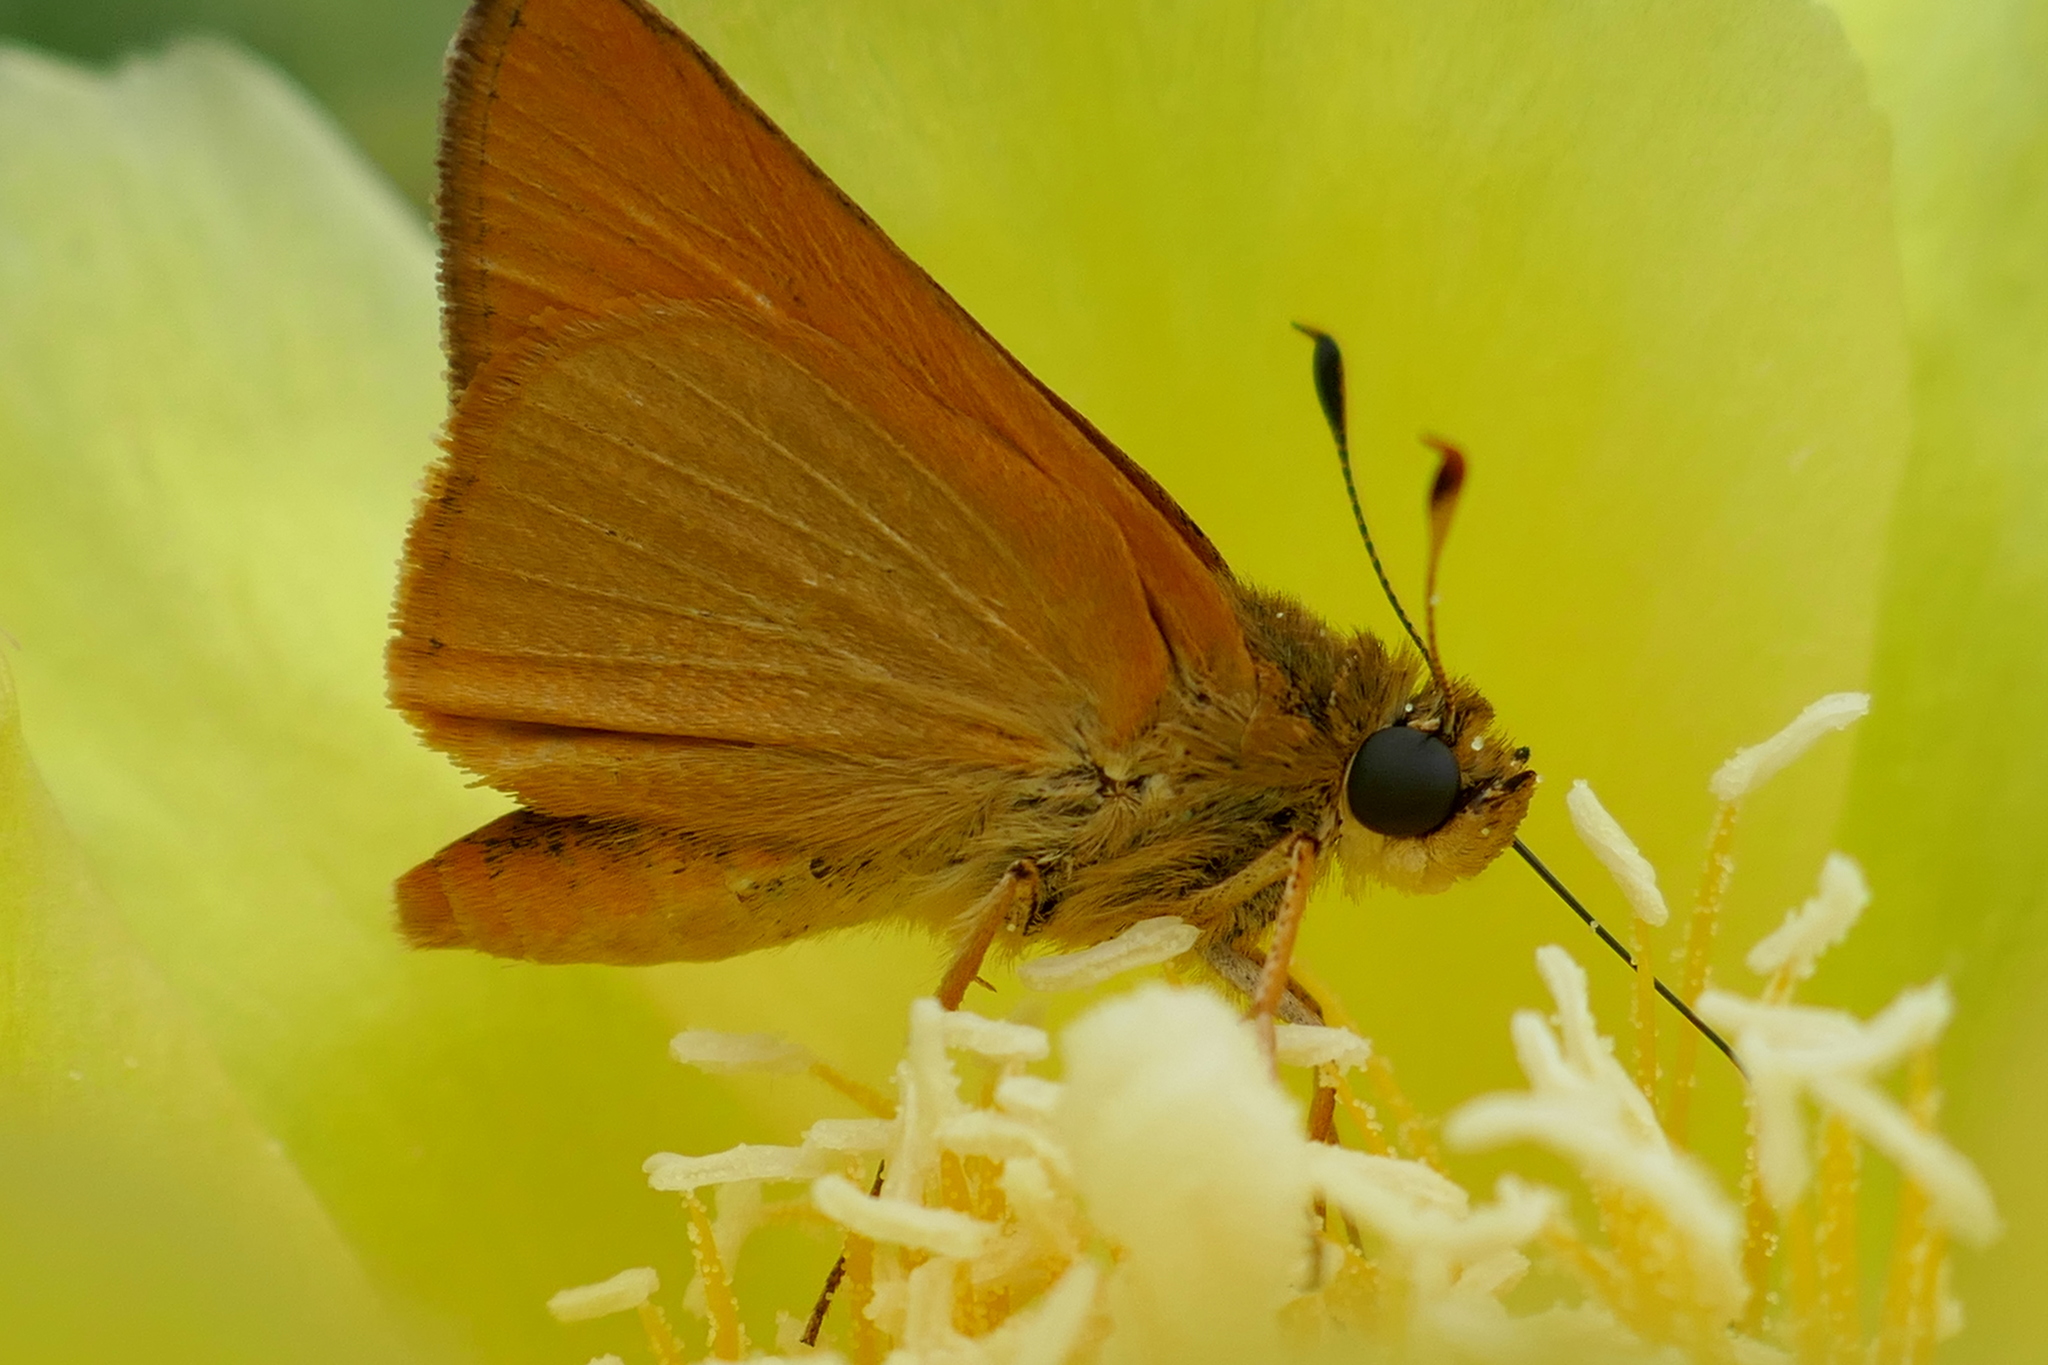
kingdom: Animalia
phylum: Arthropoda
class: Insecta
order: Lepidoptera
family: Hesperiidae
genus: Atrytone
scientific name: Atrytone delaware
